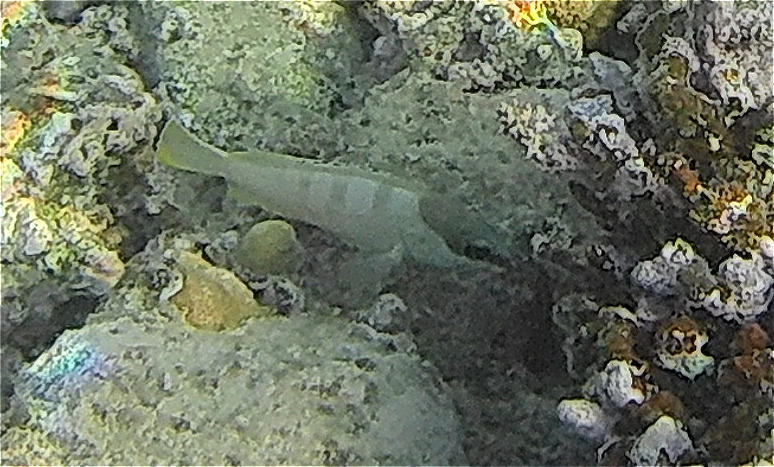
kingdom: Animalia
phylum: Chordata
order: Perciformes
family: Serranidae
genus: Epinephelus
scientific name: Epinephelus fasciatus
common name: Blacktip grouper
